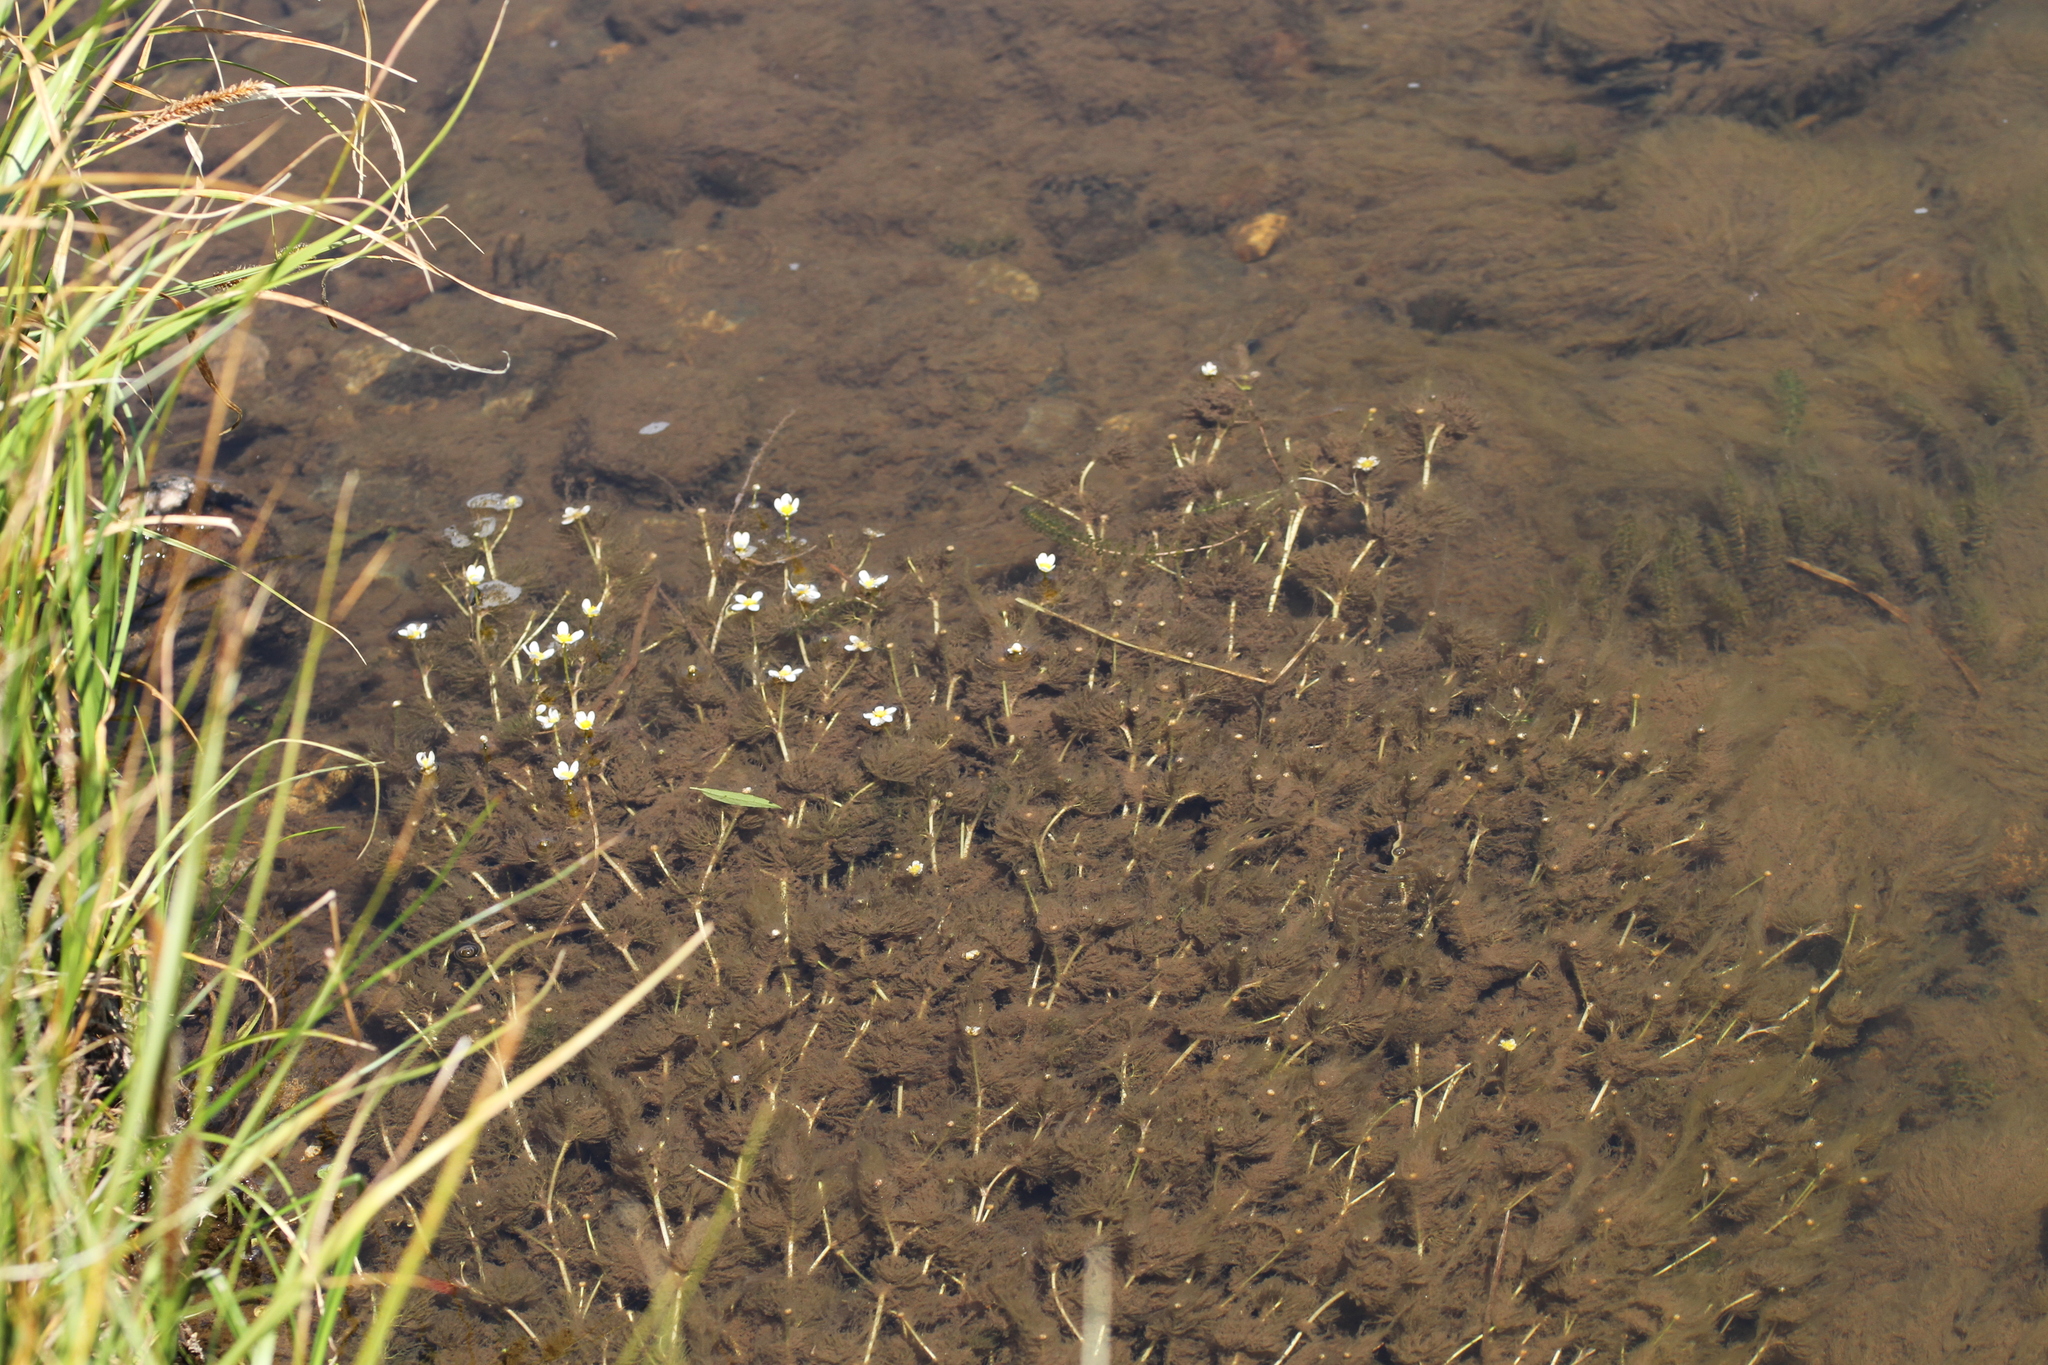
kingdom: Plantae
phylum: Tracheophyta
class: Magnoliopsida
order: Ranunculales
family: Ranunculaceae
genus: Ranunculus
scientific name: Ranunculus aquatilis
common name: Common water-crowfoot
